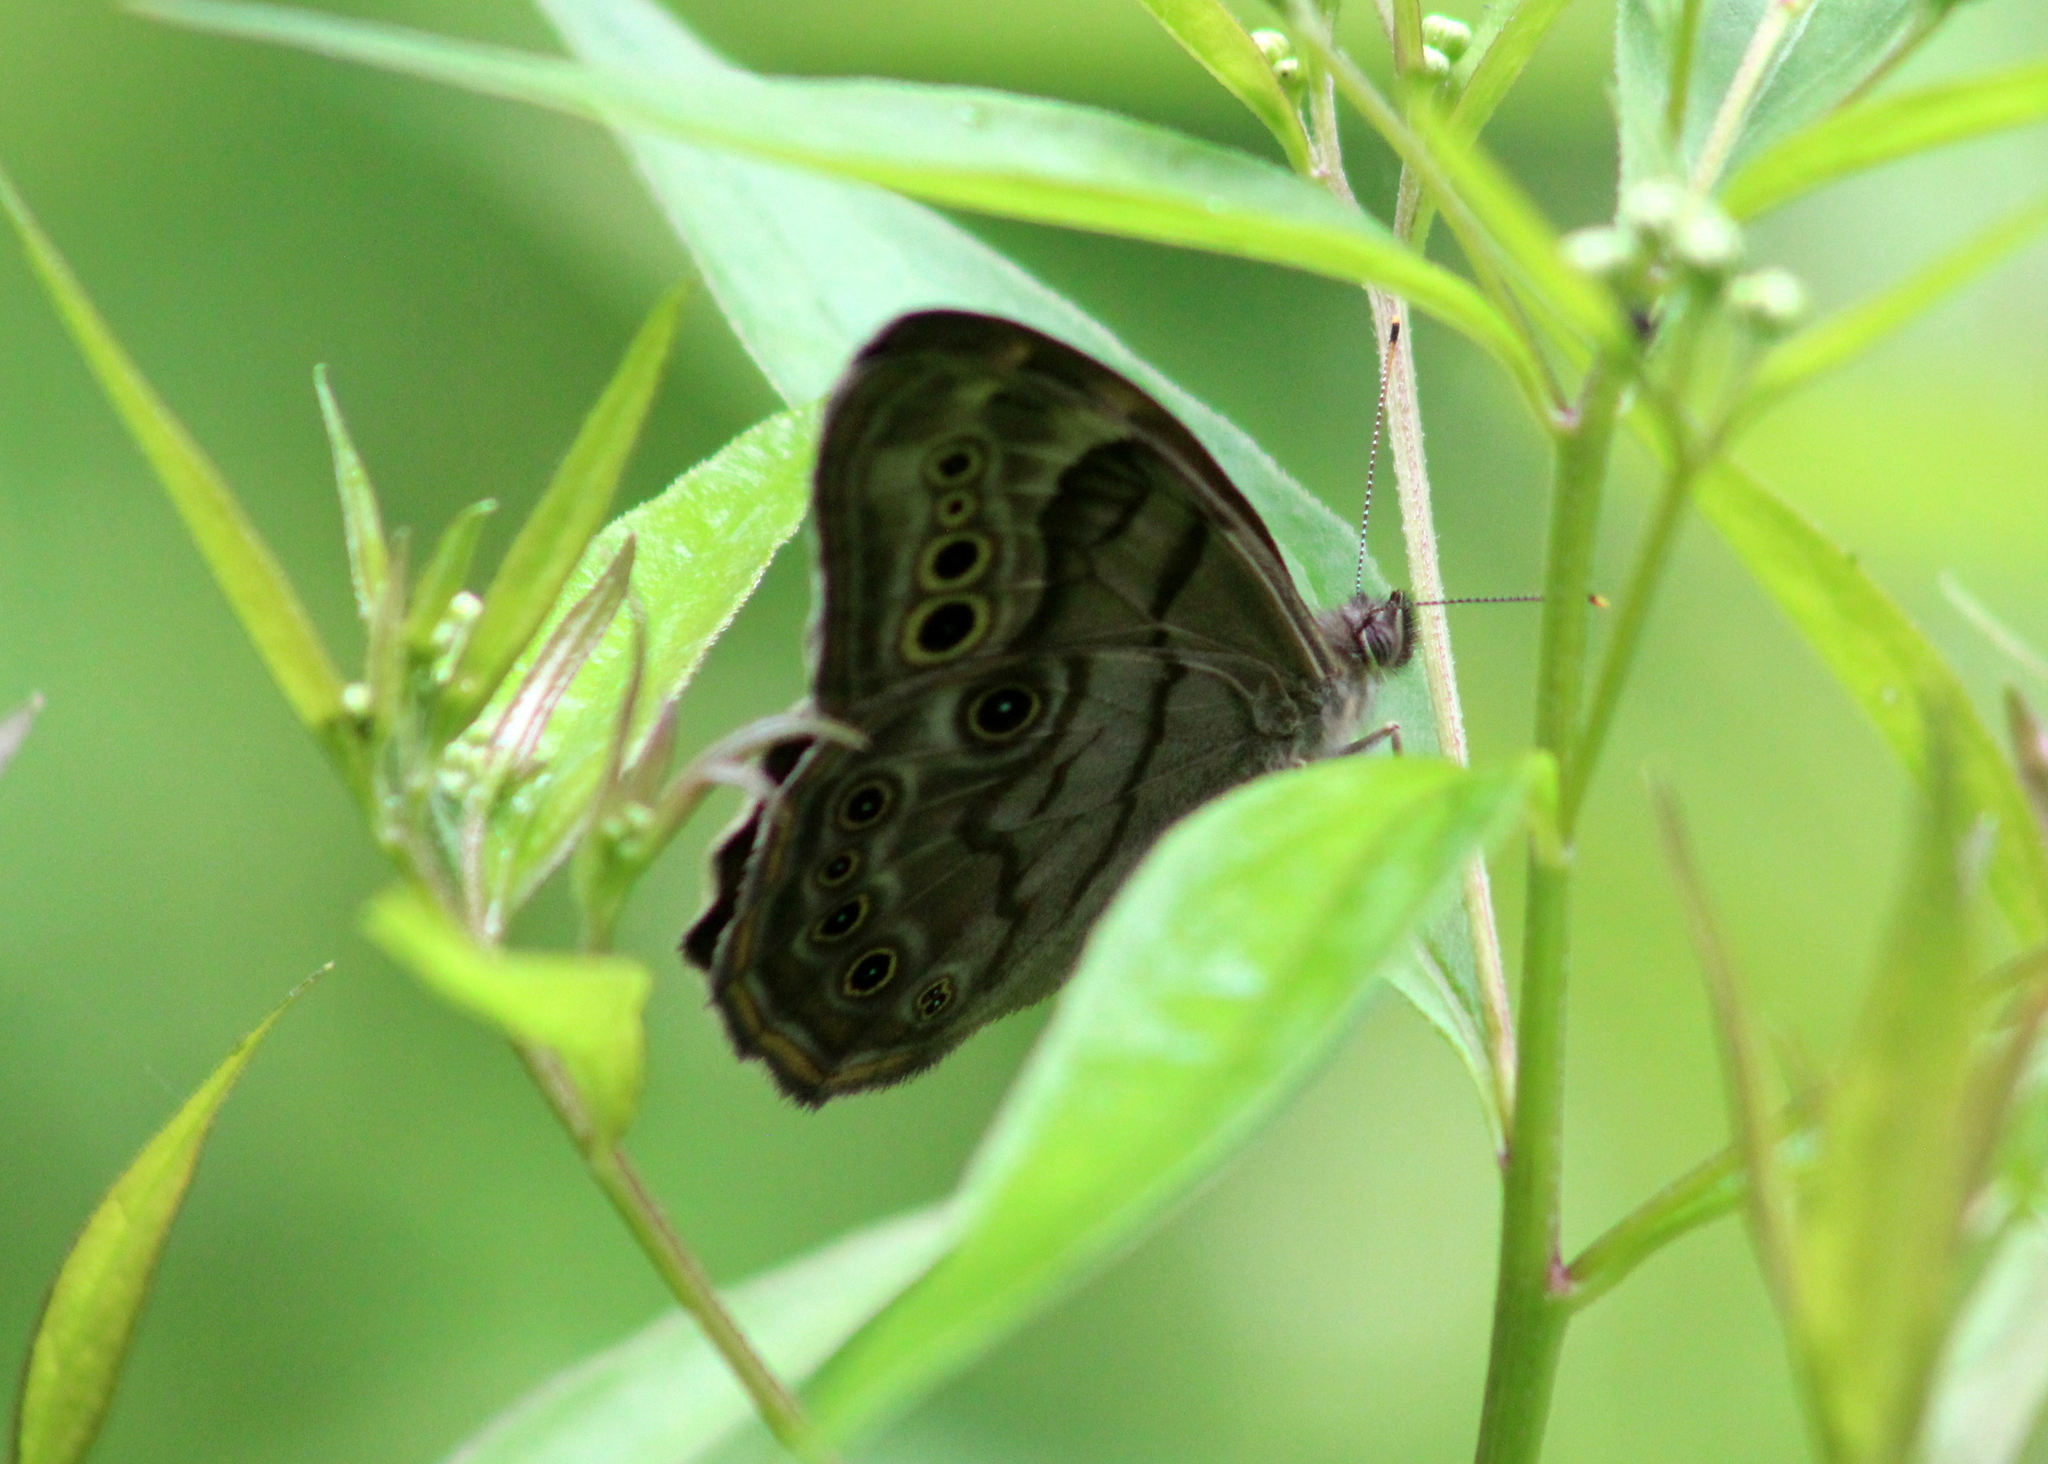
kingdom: Animalia
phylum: Arthropoda
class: Insecta
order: Lepidoptera
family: Nymphalidae
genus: Lethe
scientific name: Lethe anthedon
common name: Northern pearly-eye
